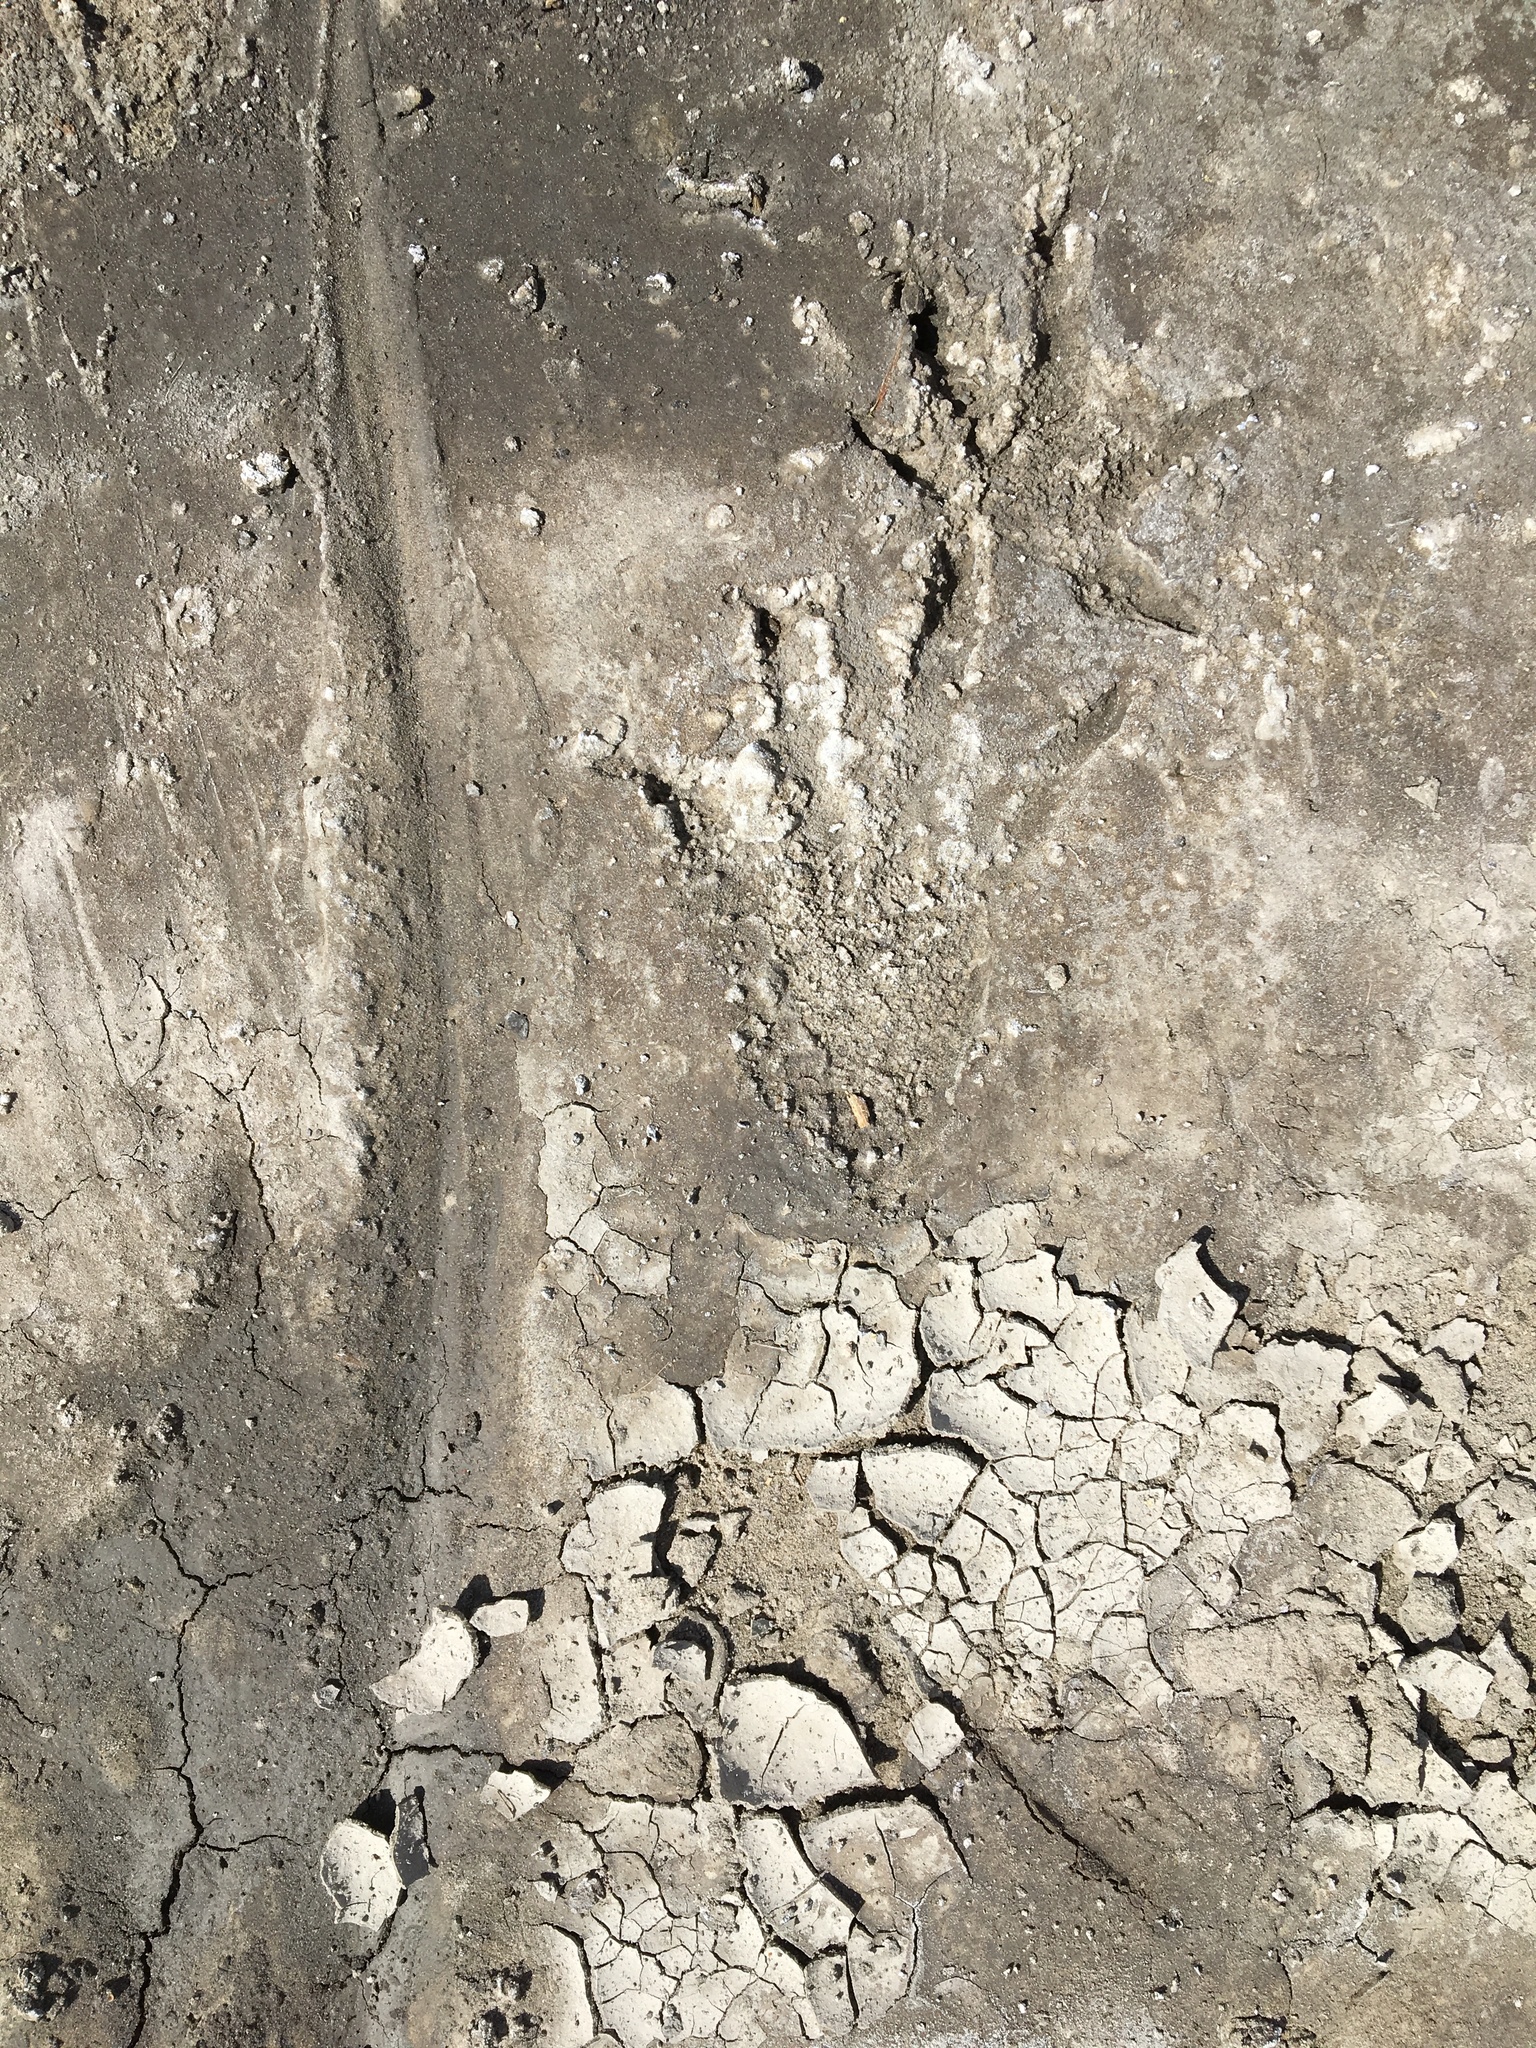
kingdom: Animalia
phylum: Chordata
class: Crocodylia
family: Alligatoridae
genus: Alligator
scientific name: Alligator mississippiensis
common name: American alligator
